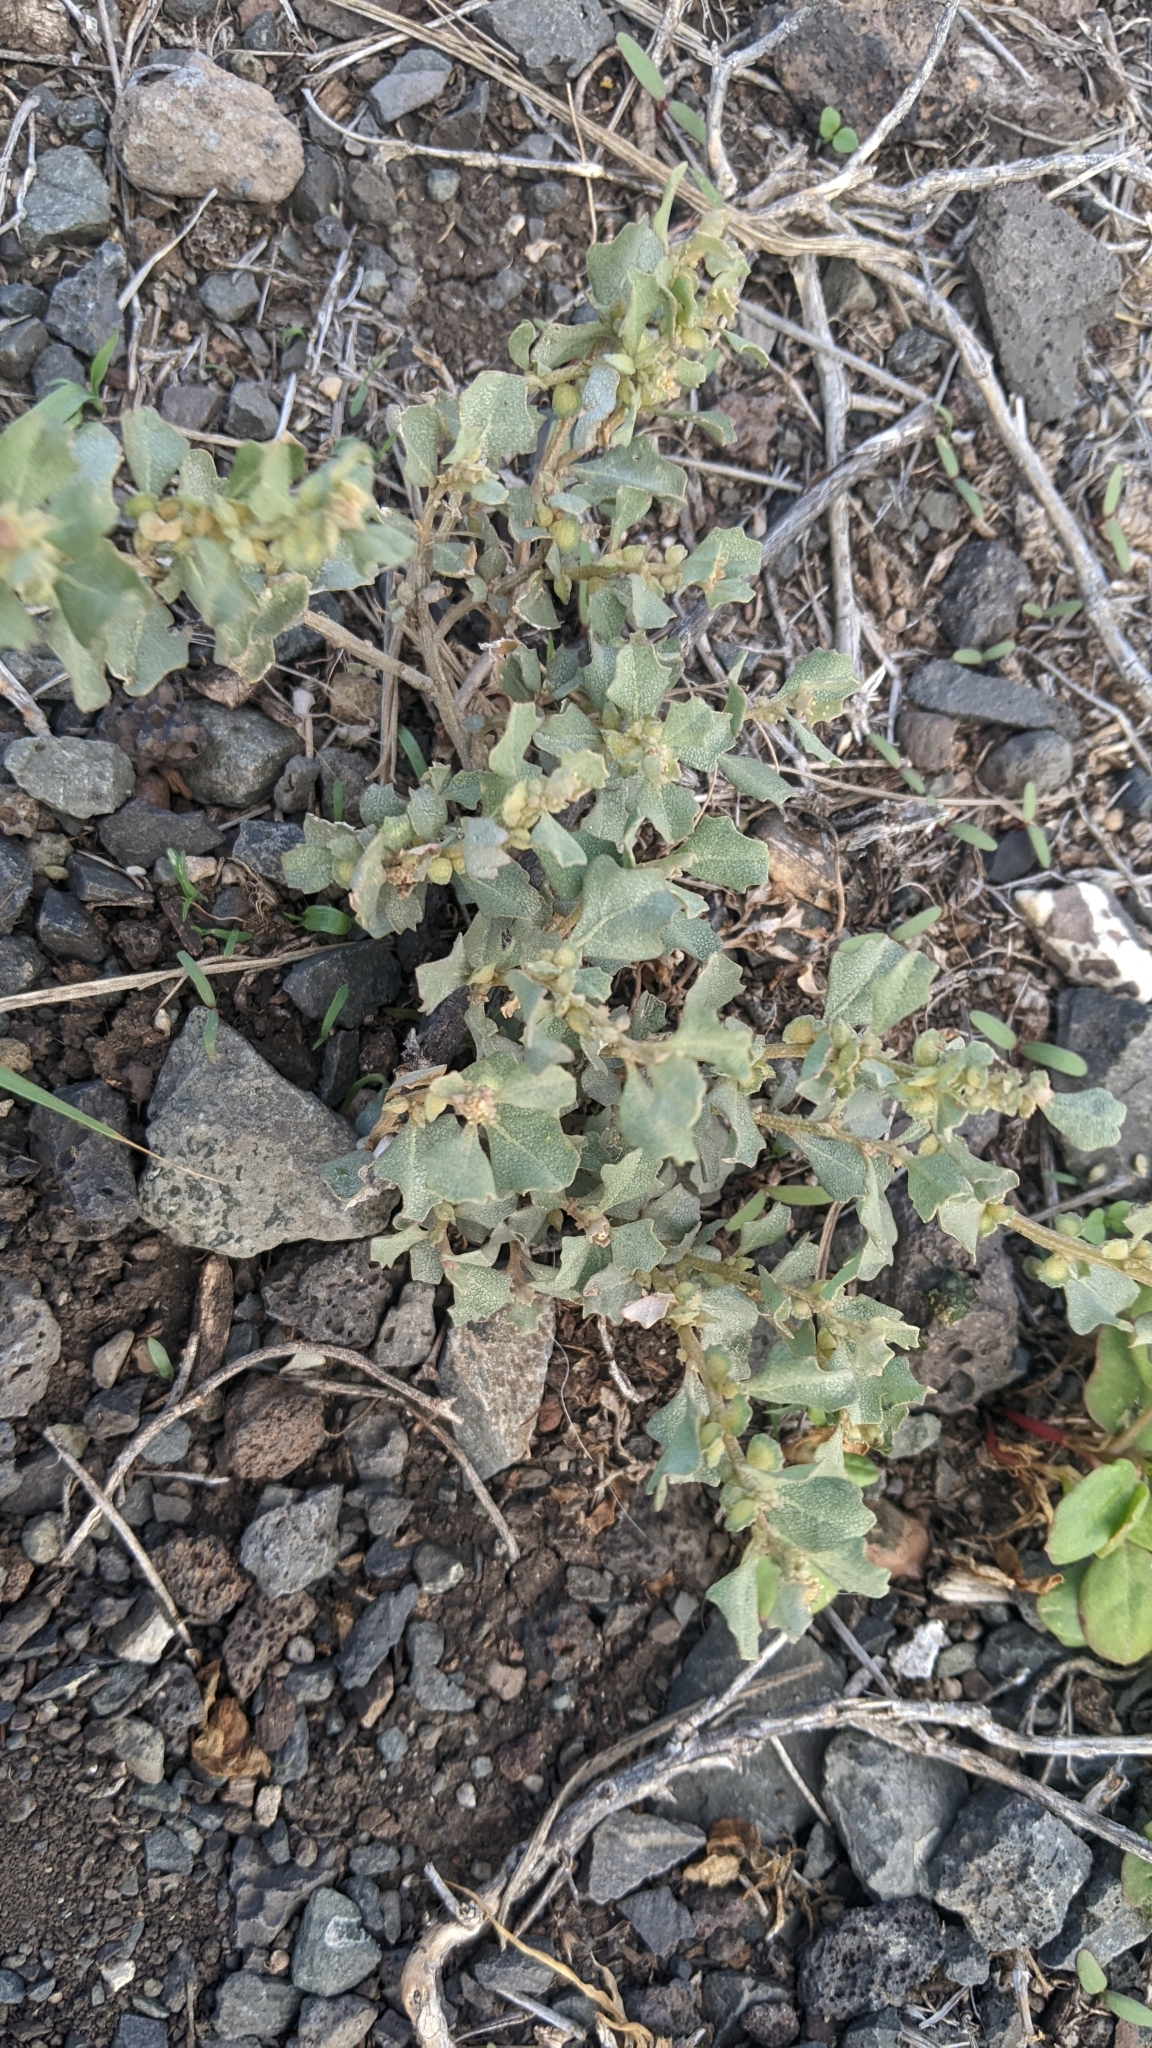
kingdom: Plantae
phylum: Tracheophyta
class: Magnoliopsida
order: Caryophyllales
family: Amaranthaceae
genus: Atriplex
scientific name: Atriplex muelleri
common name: Mueller's saltbush
